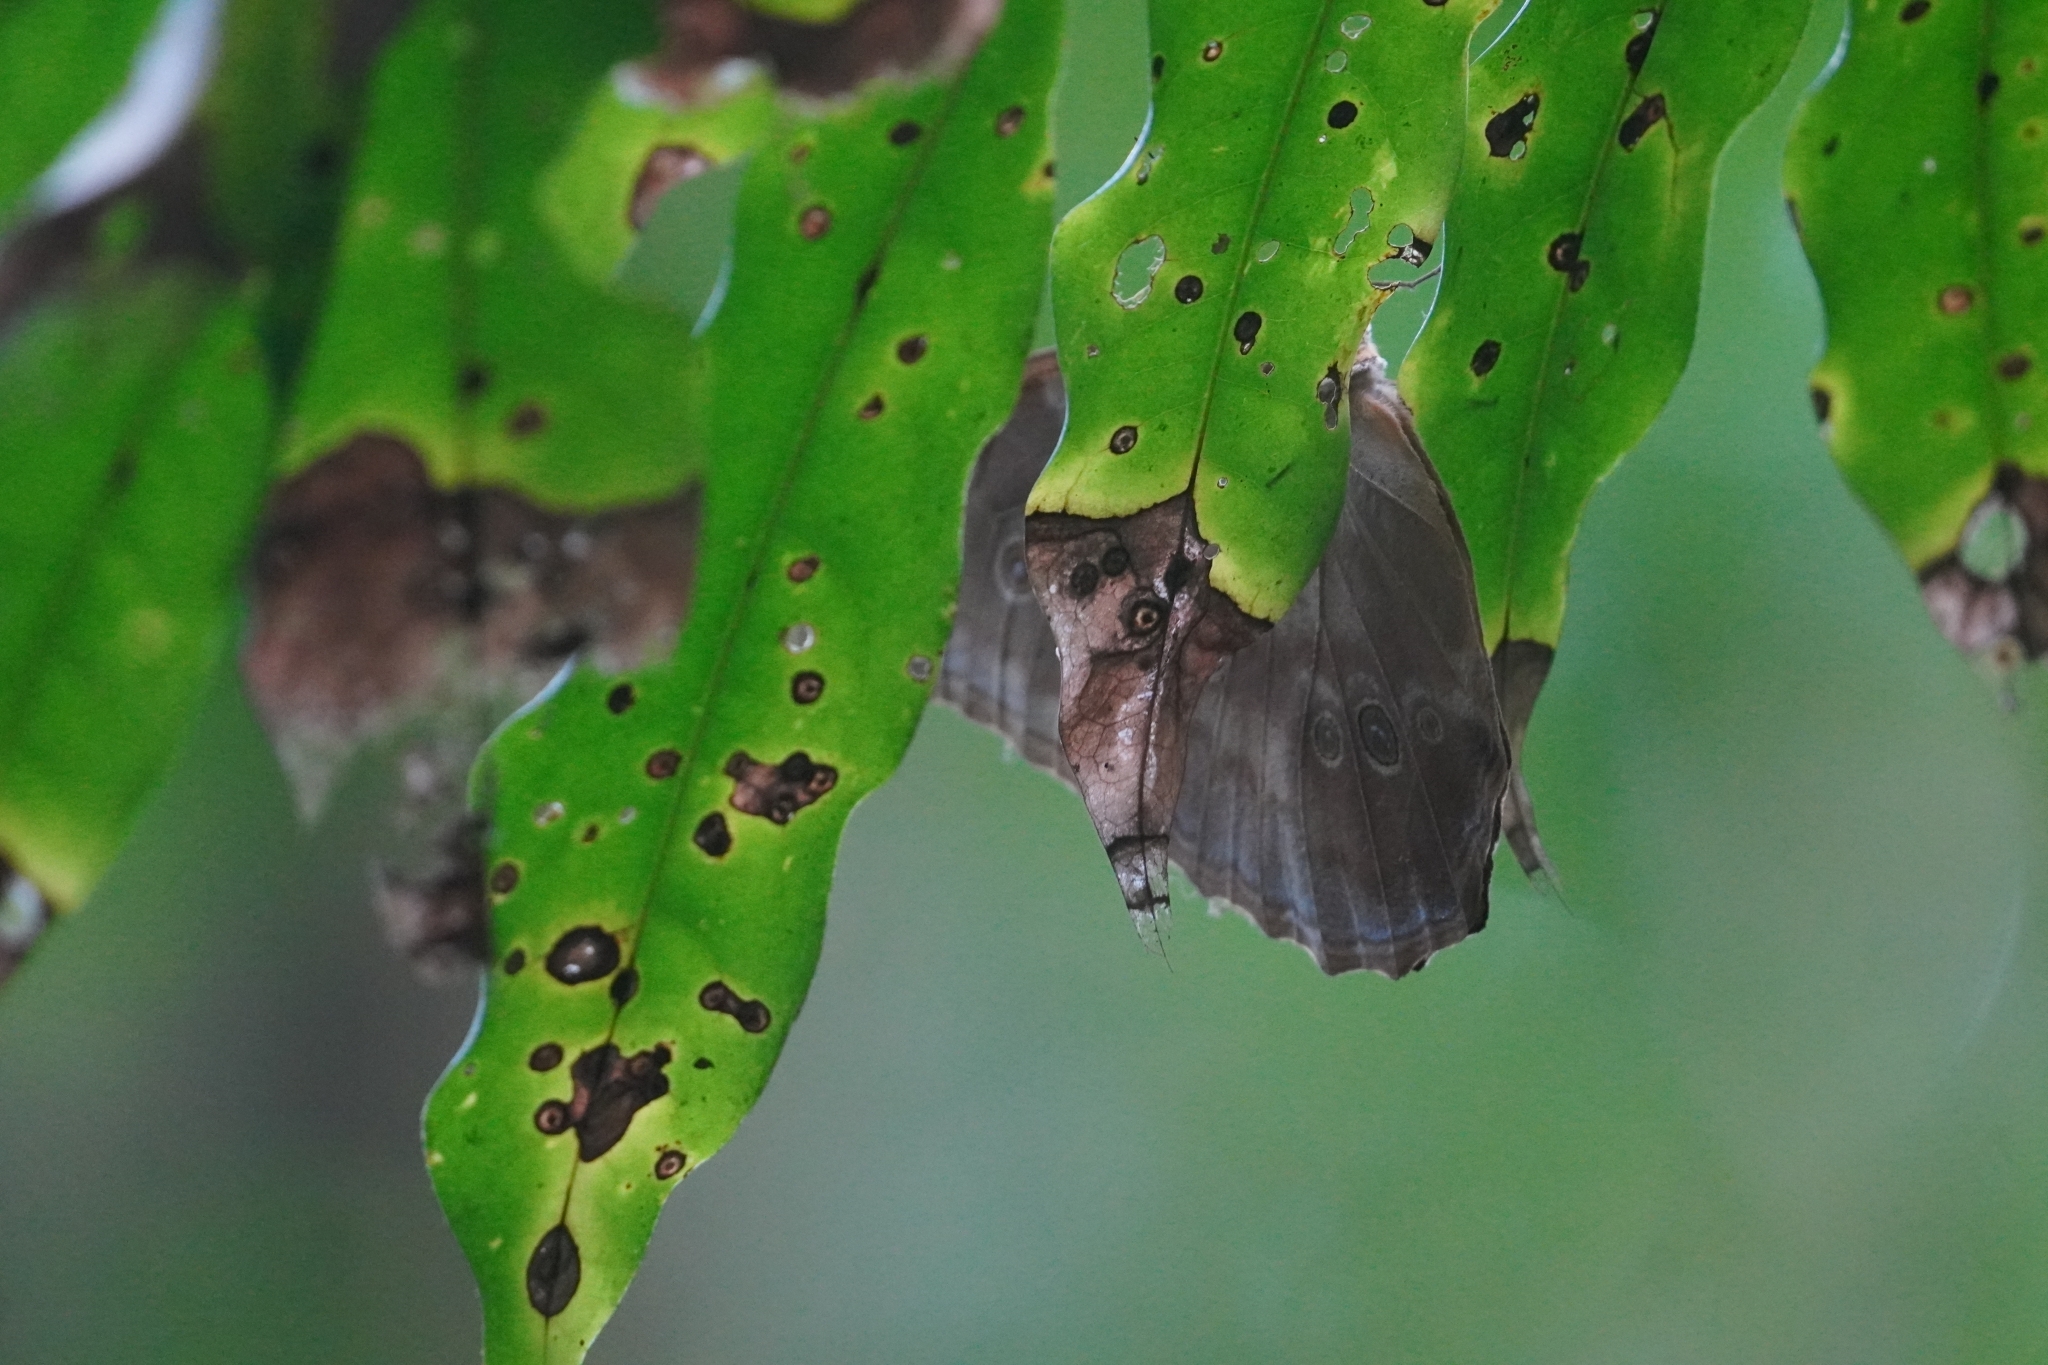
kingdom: Animalia
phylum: Arthropoda
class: Insecta
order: Lepidoptera
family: Nymphalidae
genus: Morpho
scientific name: Morpho amathonte
